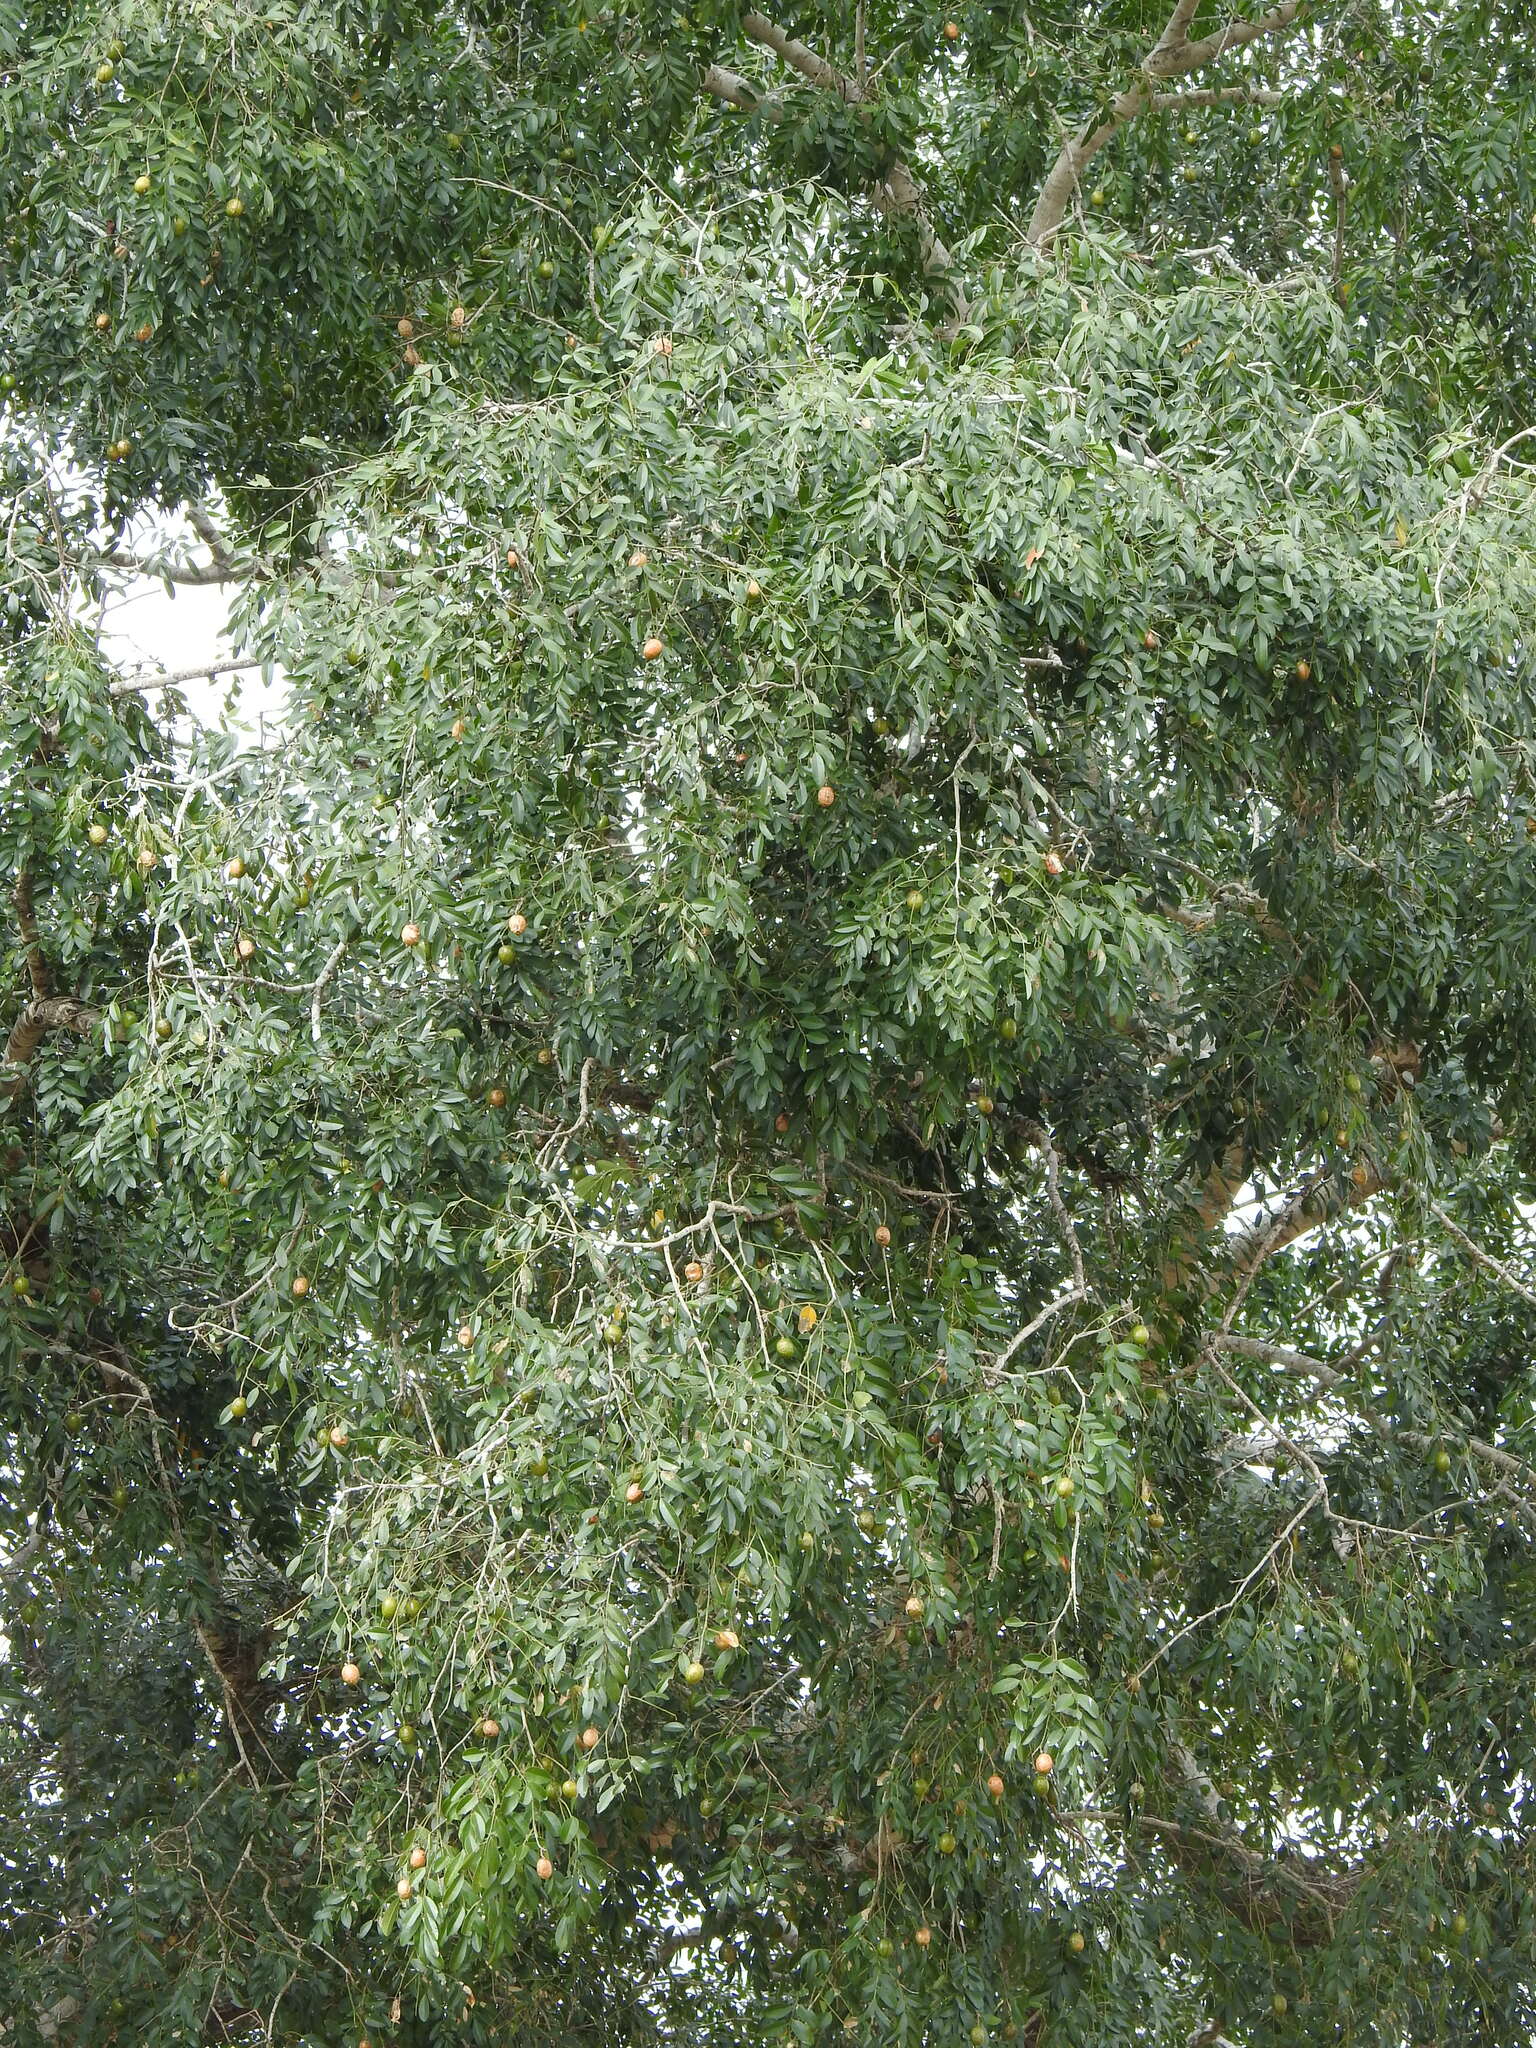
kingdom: Plantae
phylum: Tracheophyta
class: Magnoliopsida
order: Fabales
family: Fabaceae
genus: Xanthocercis
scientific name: Xanthocercis zambesiaca
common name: Nyala-tree
